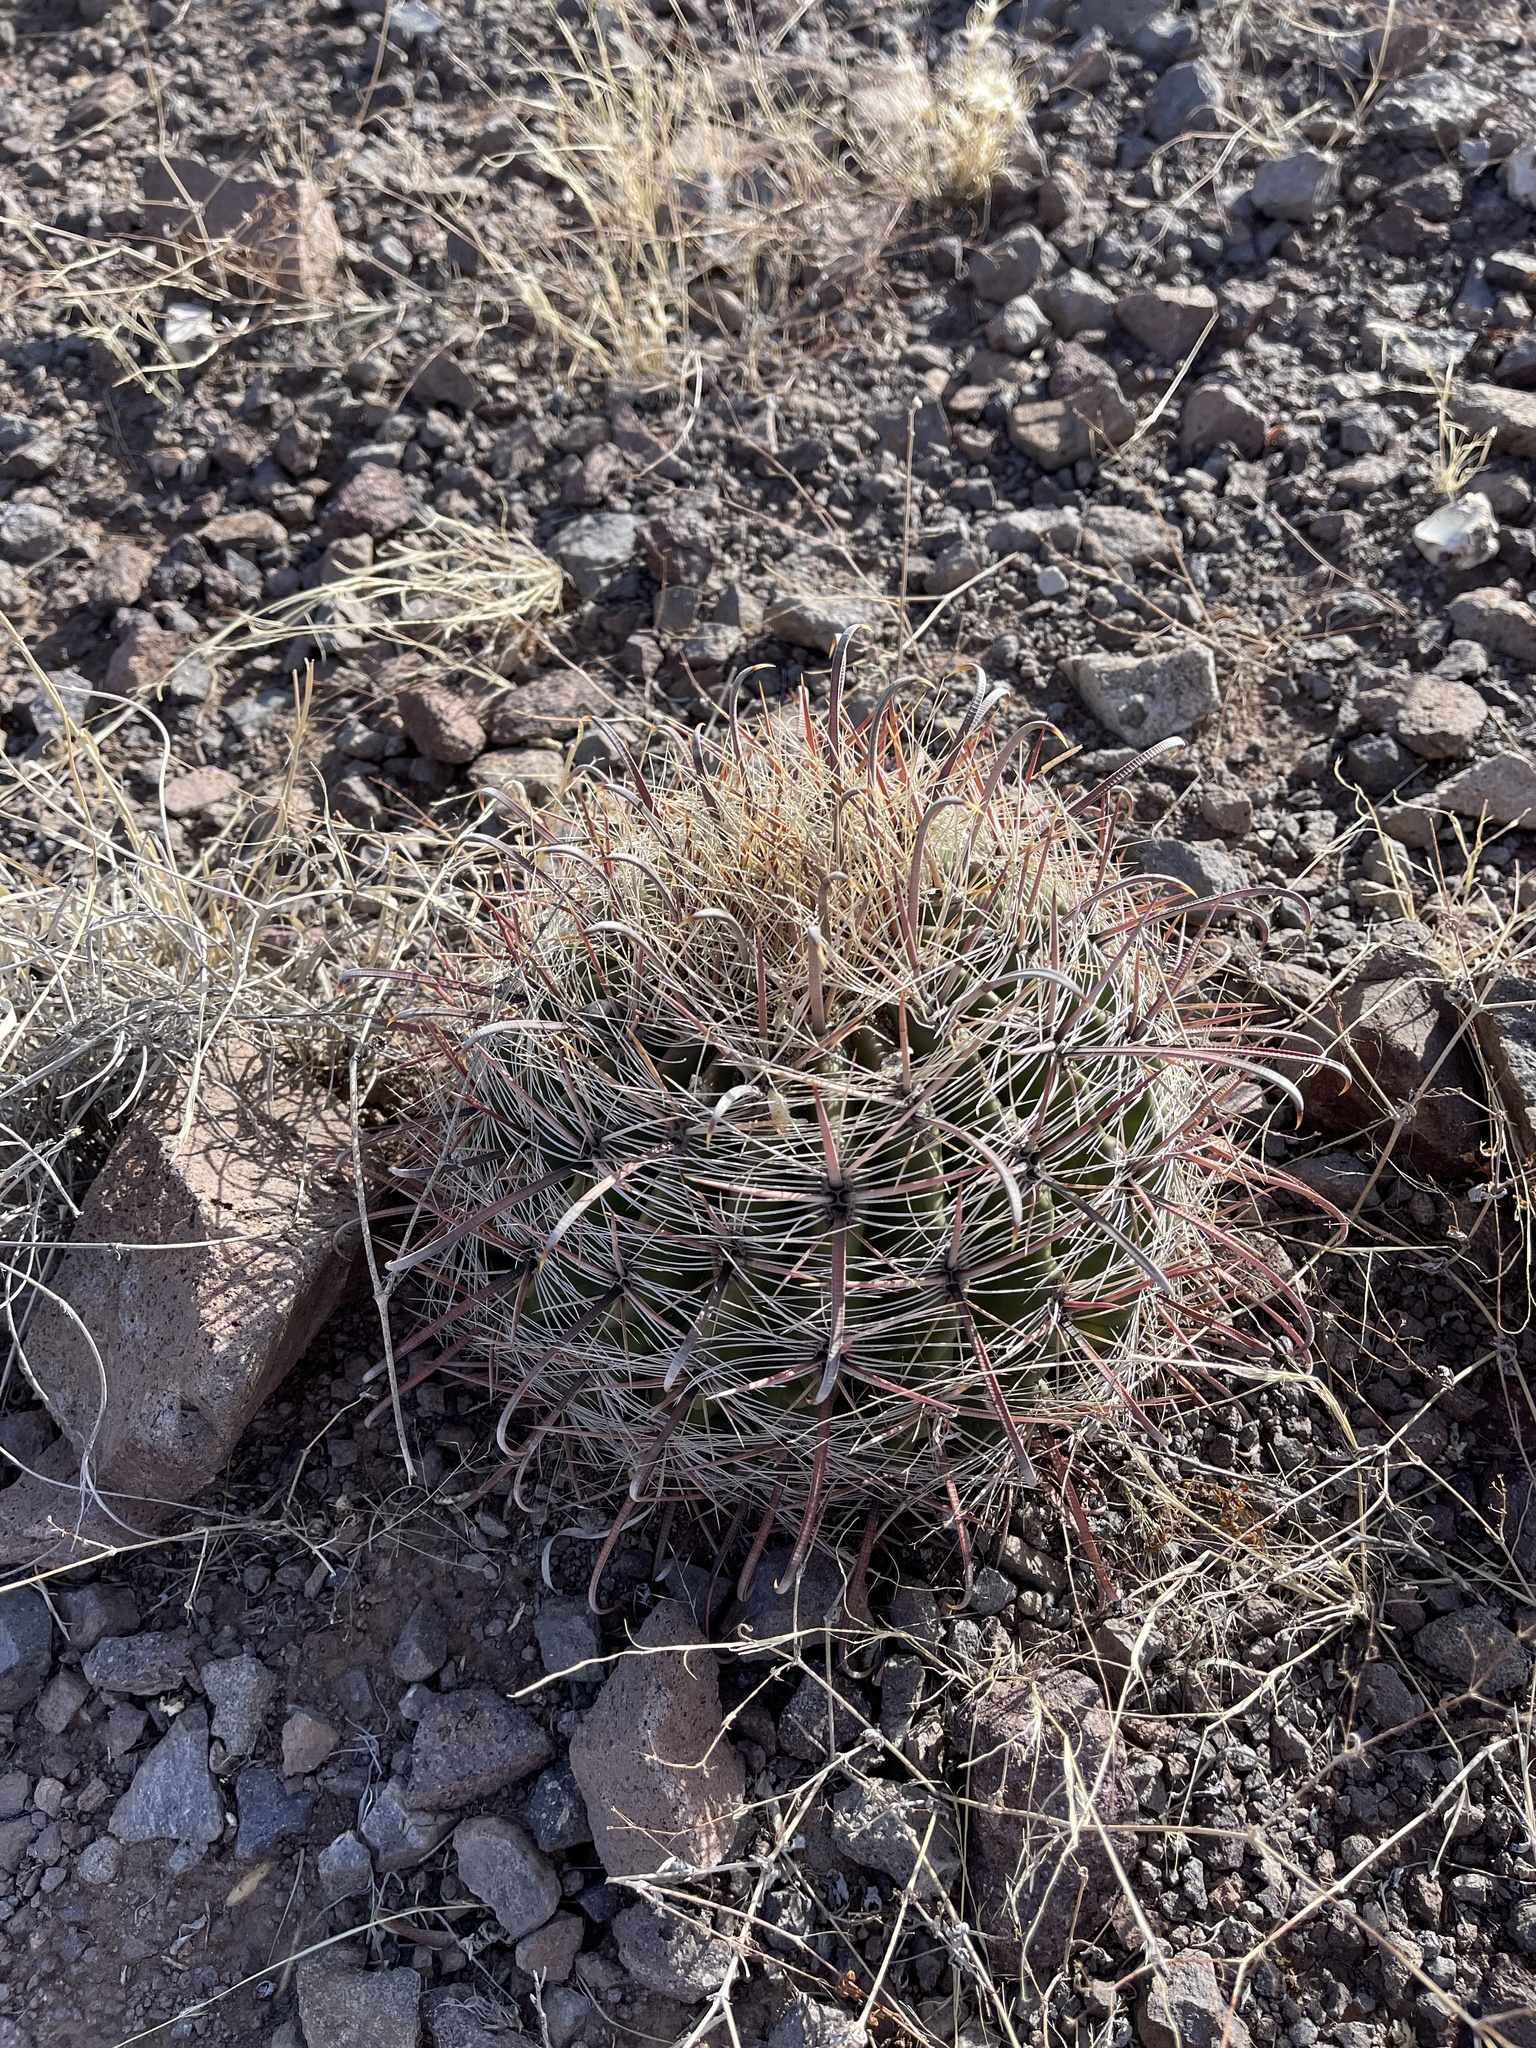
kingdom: Plantae
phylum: Tracheophyta
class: Magnoliopsida
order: Caryophyllales
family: Cactaceae
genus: Ferocactus
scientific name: Ferocactus wislizeni
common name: Candy barrel cactus
